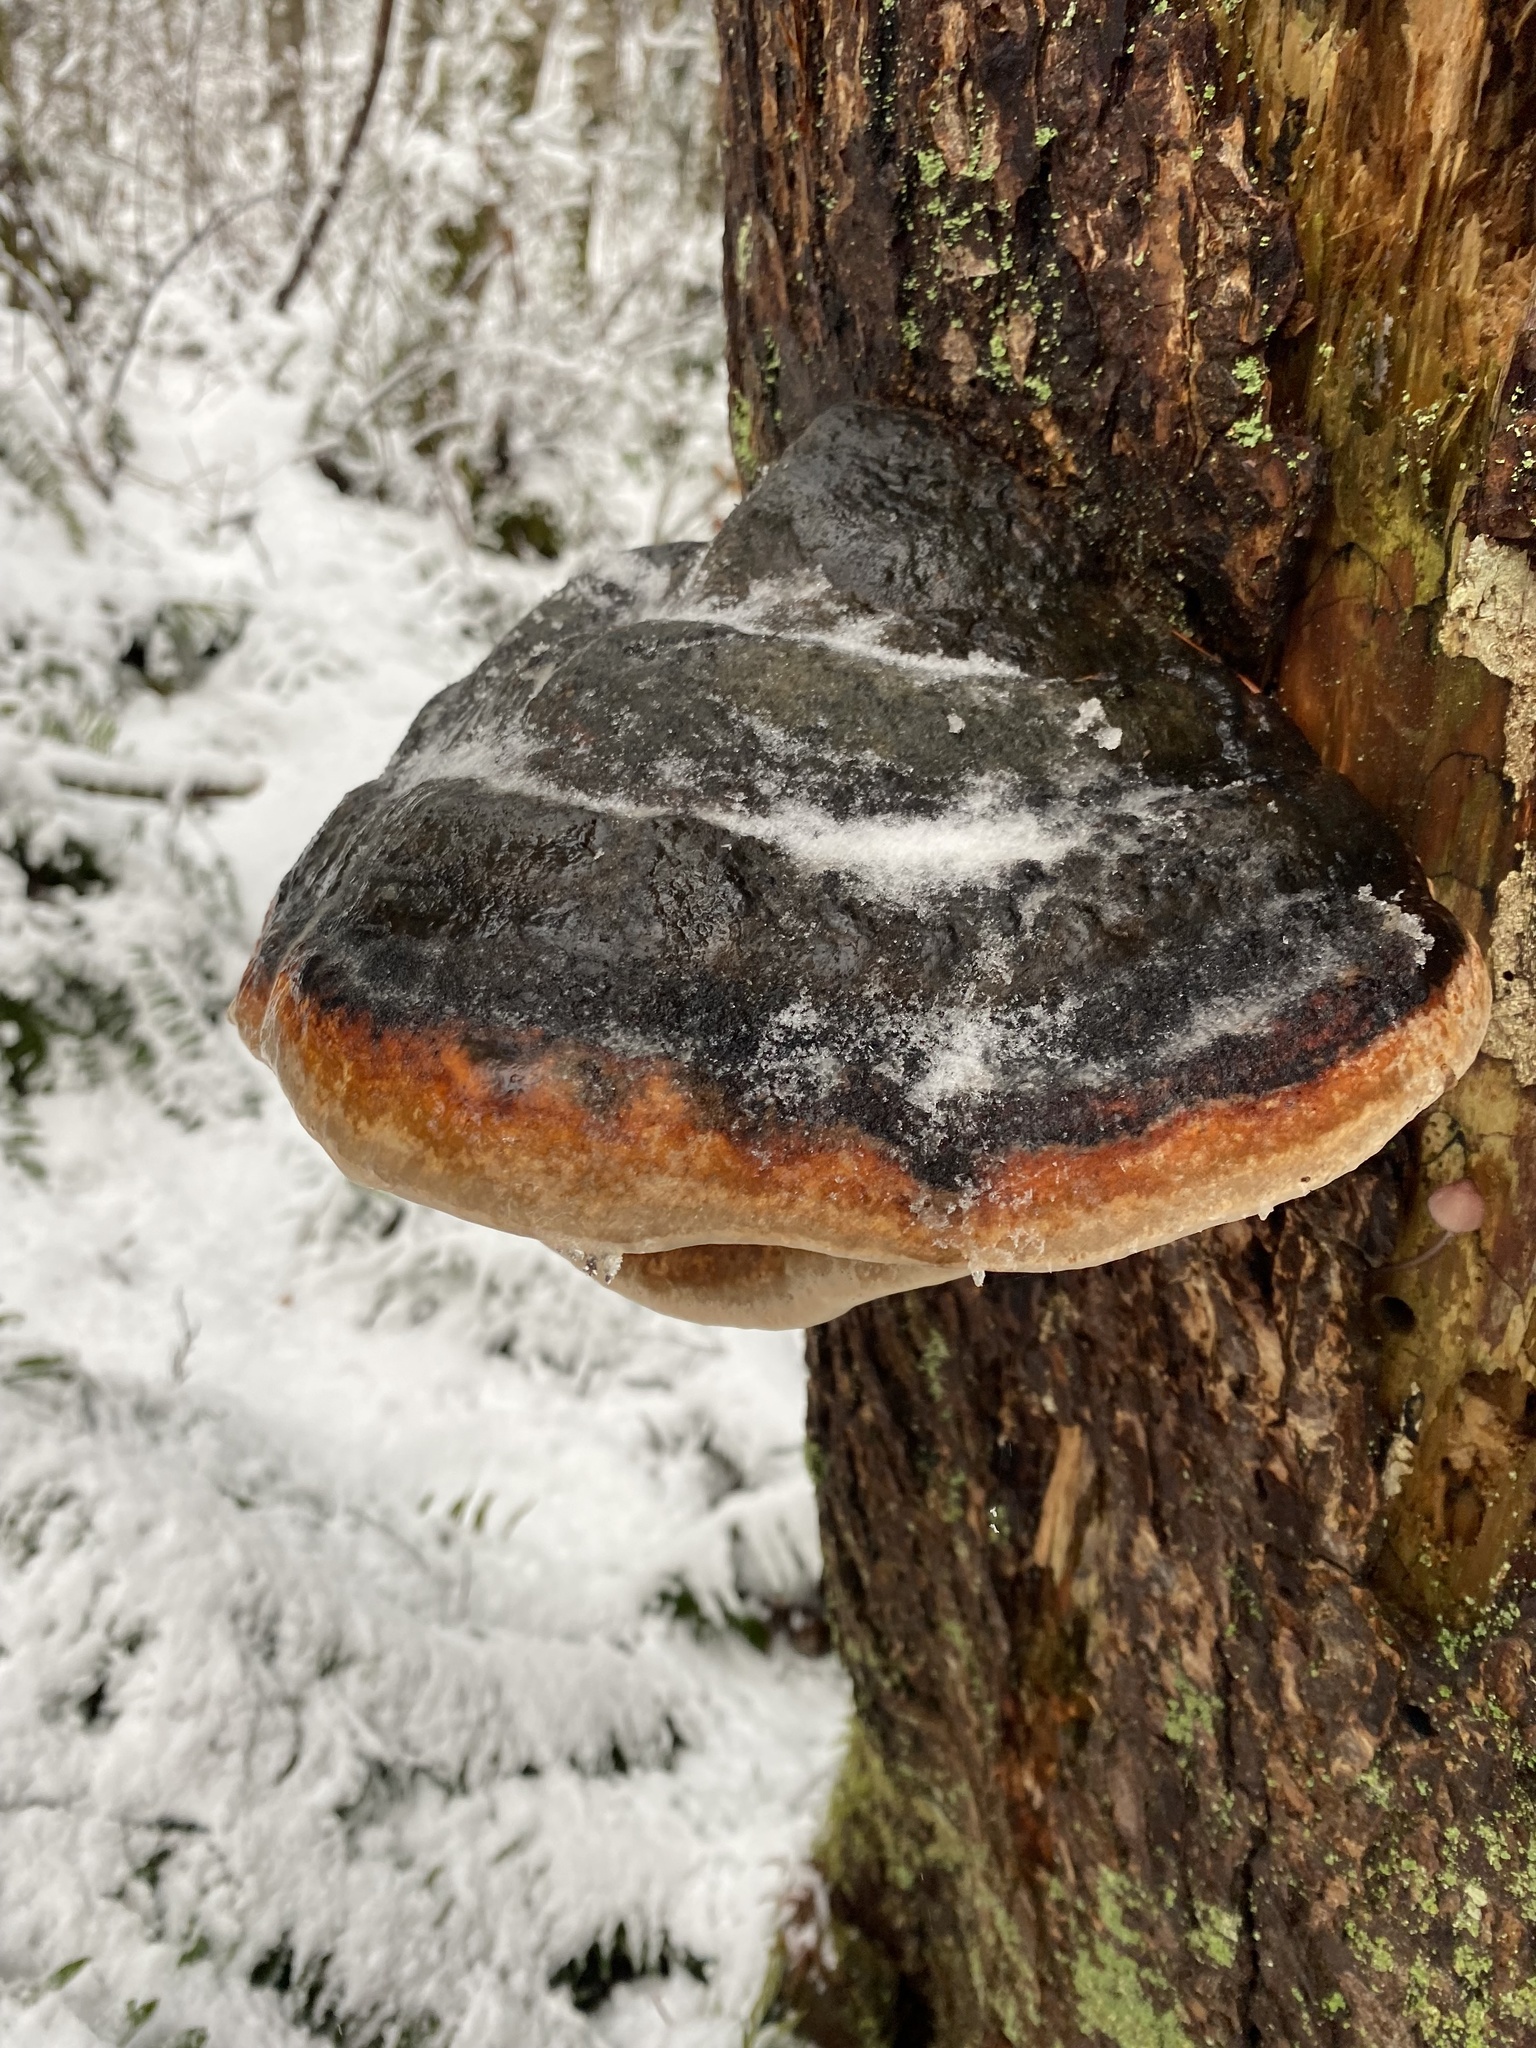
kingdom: Fungi
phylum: Basidiomycota
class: Agaricomycetes
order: Polyporales
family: Fomitopsidaceae
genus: Fomitopsis
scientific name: Fomitopsis mounceae
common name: Northern red belt
